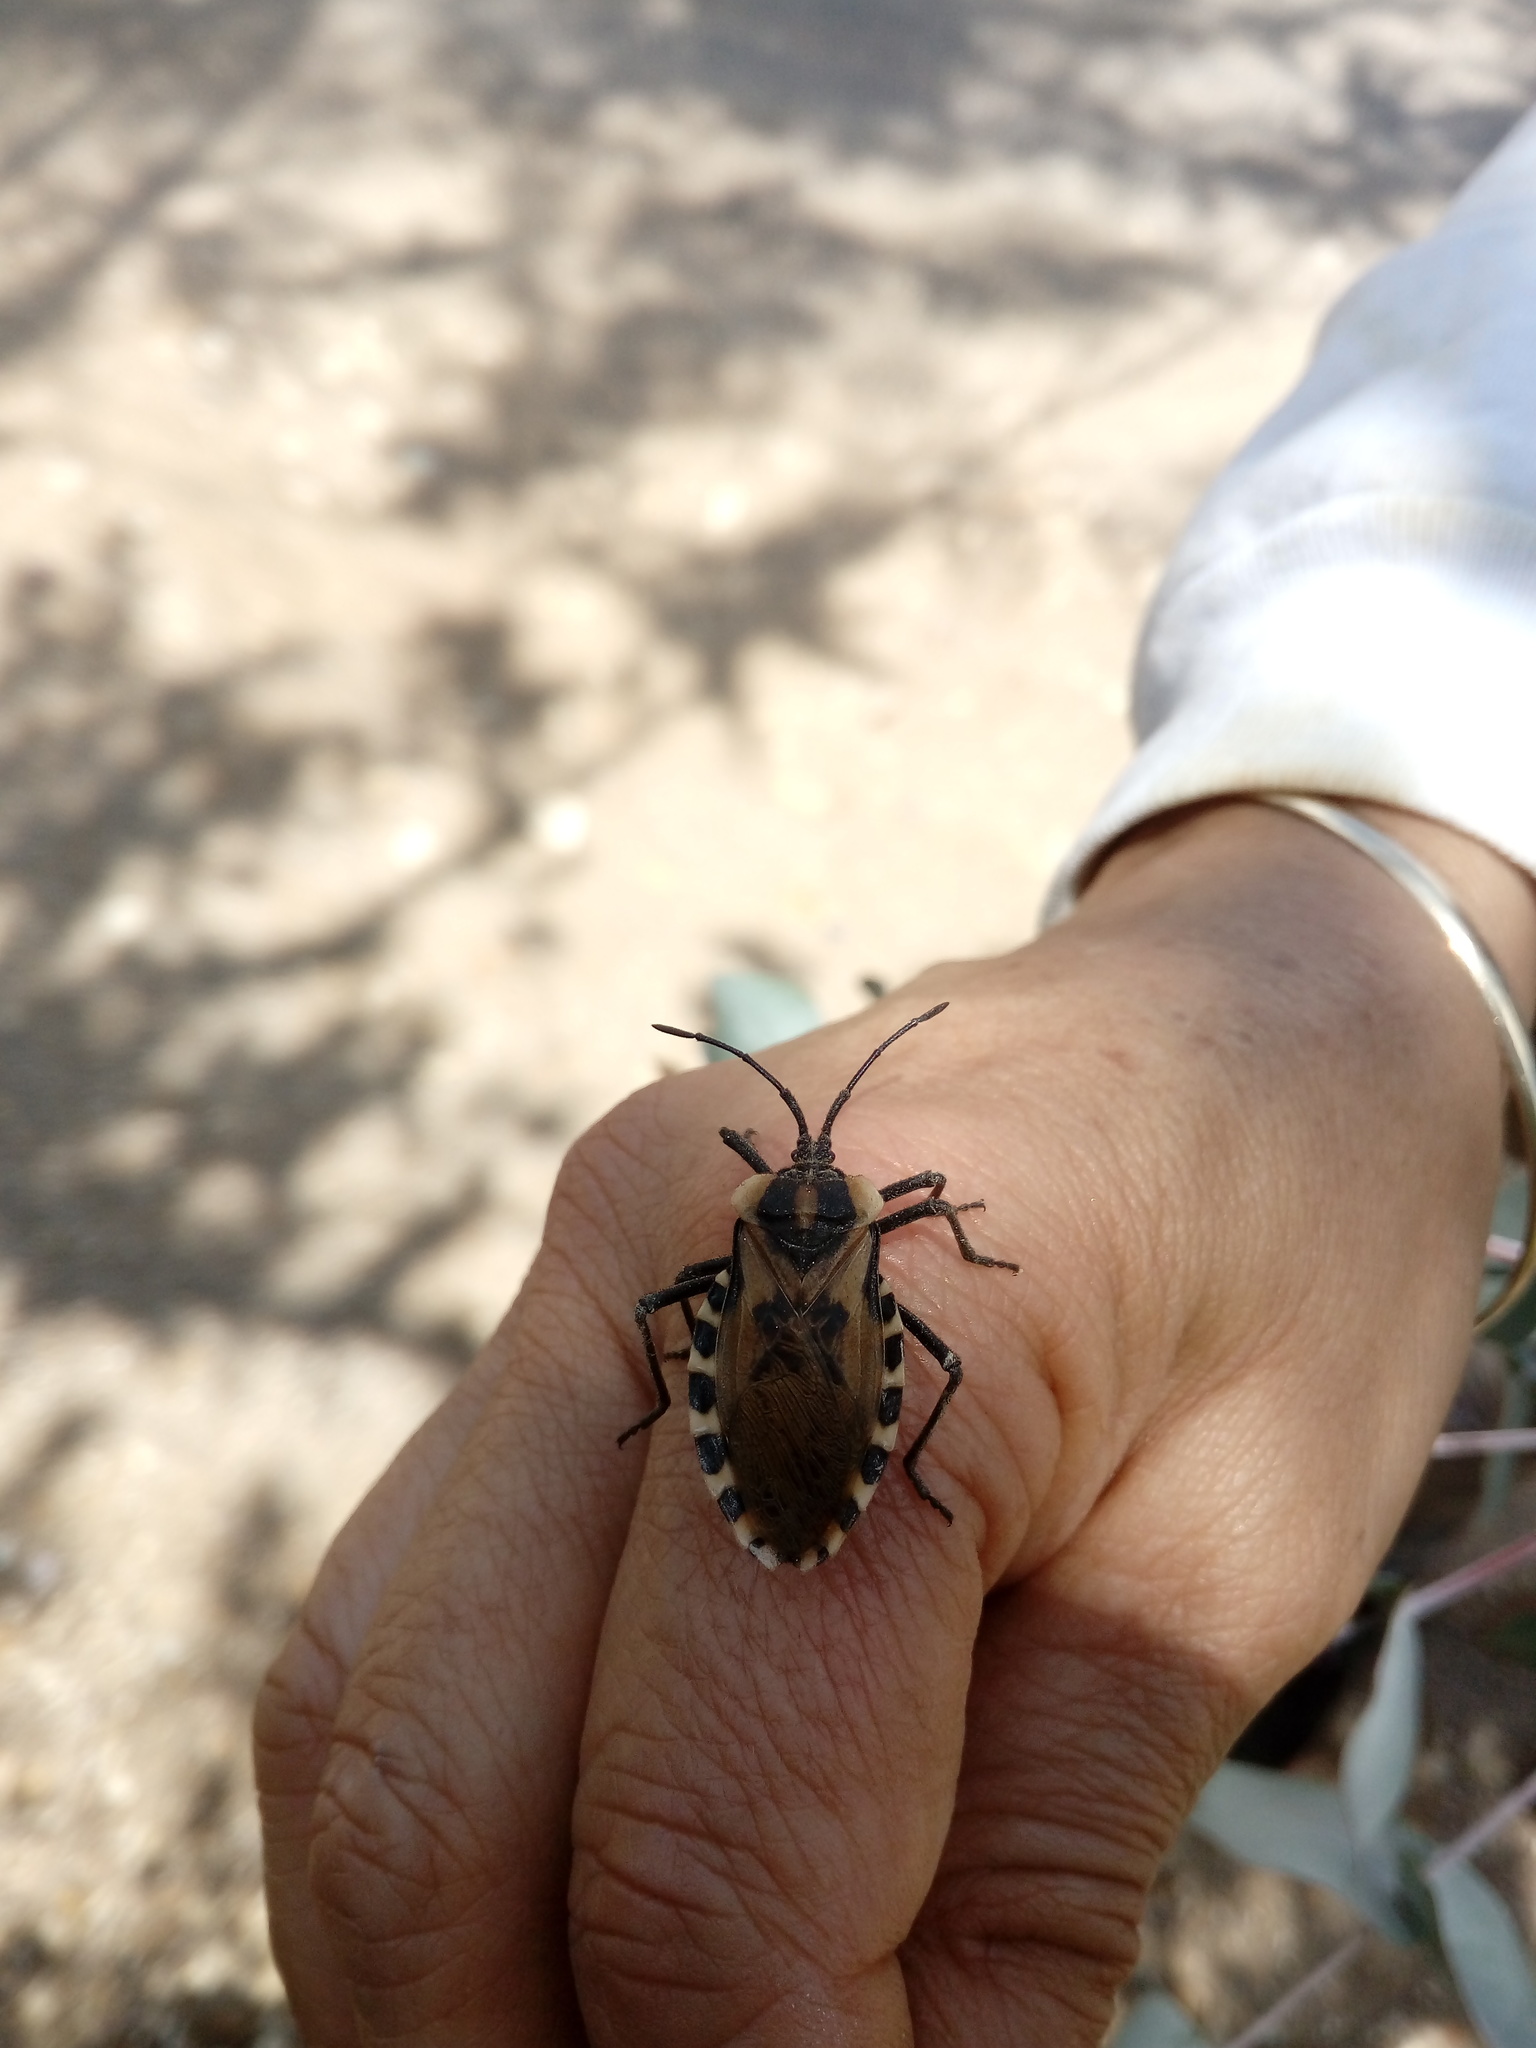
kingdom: Animalia
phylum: Arthropoda
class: Insecta
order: Hemiptera
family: Coreidae
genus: Spartocera
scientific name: Spartocera alternata
